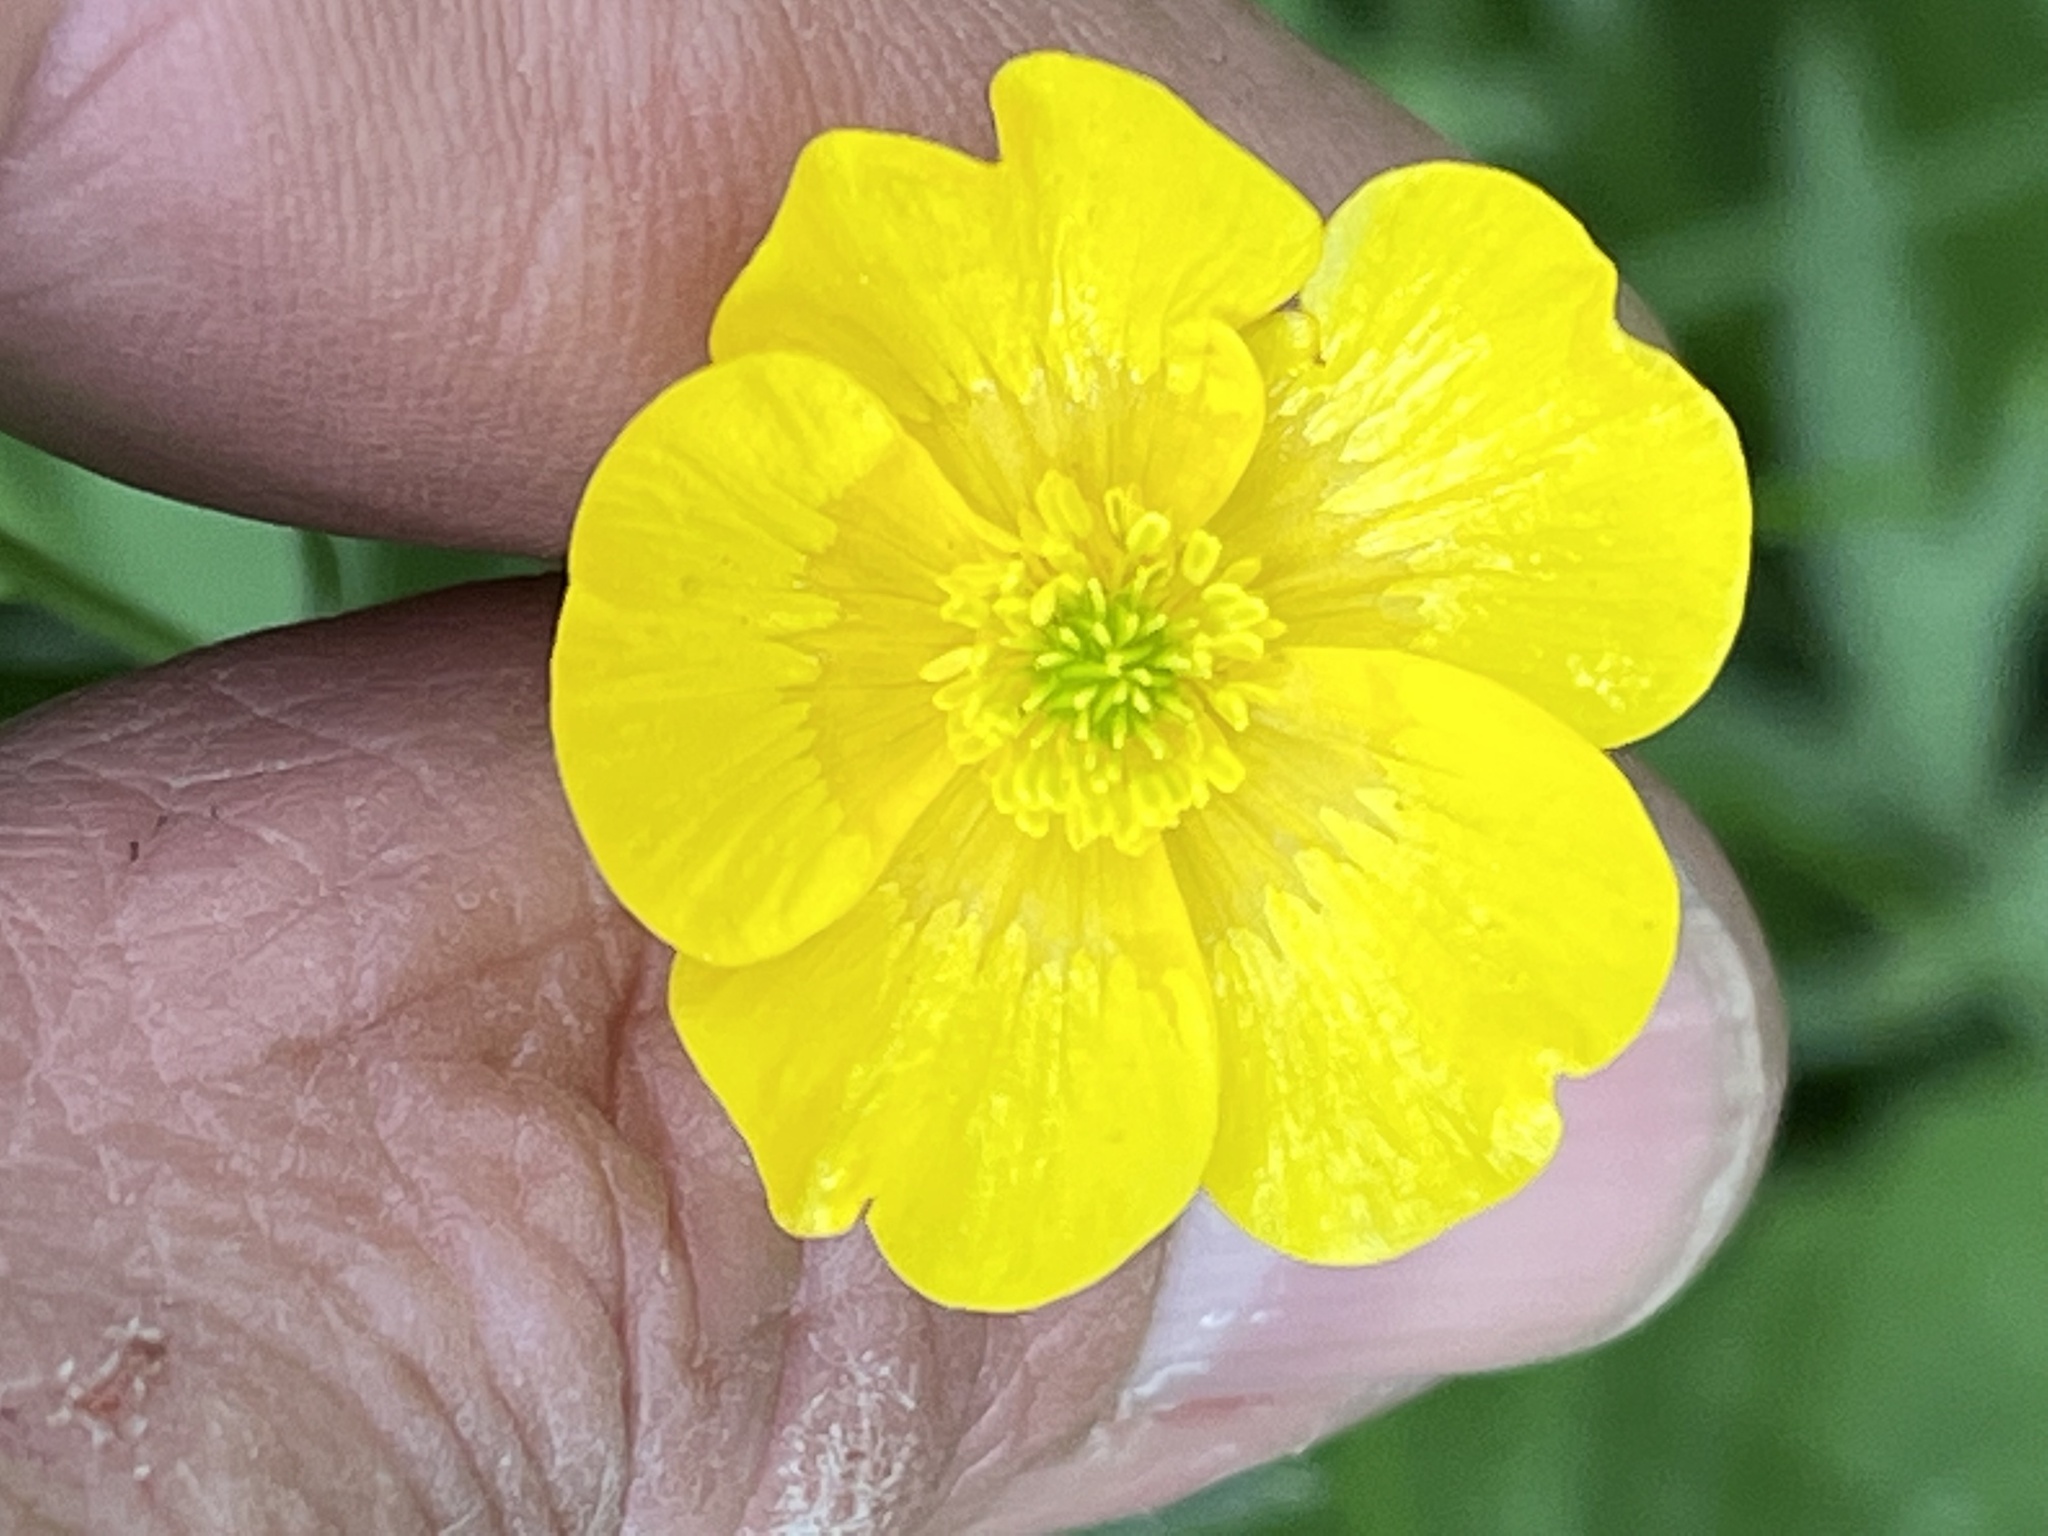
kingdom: Plantae
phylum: Tracheophyta
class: Magnoliopsida
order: Ranunculales
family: Ranunculaceae
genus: Ranunculus
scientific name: Ranunculus acris
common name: Meadow buttercup
